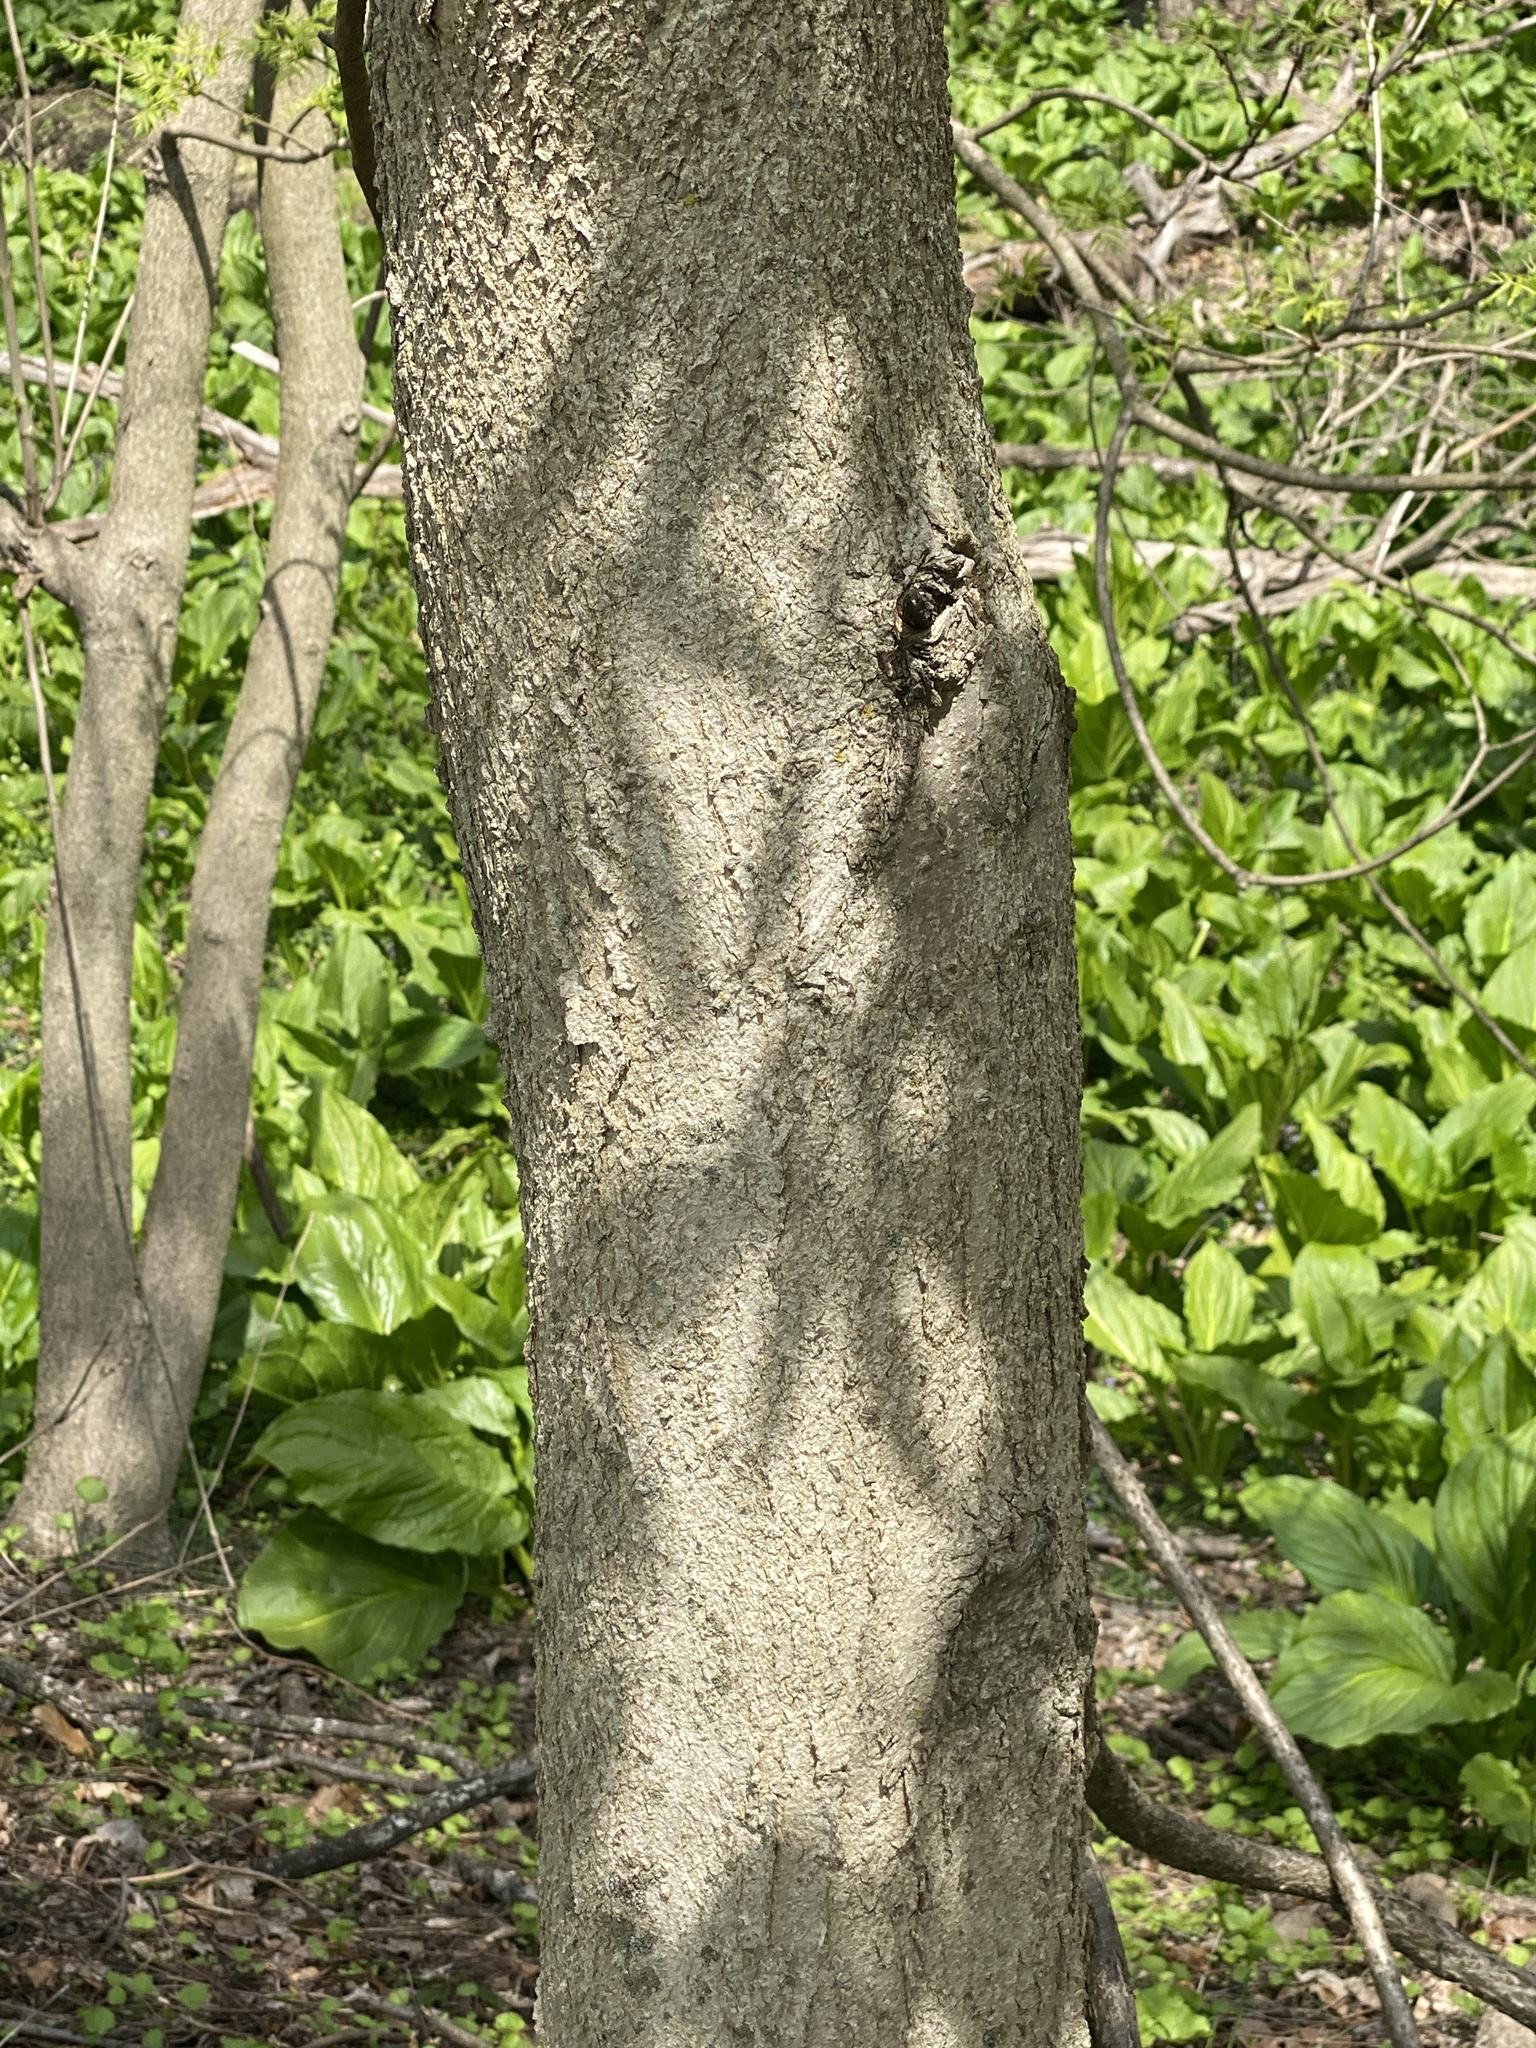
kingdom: Plantae
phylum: Tracheophyta
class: Magnoliopsida
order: Sapindales
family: Sapindaceae
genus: Aesculus
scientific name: Aesculus flava
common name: Yellow buckeye
